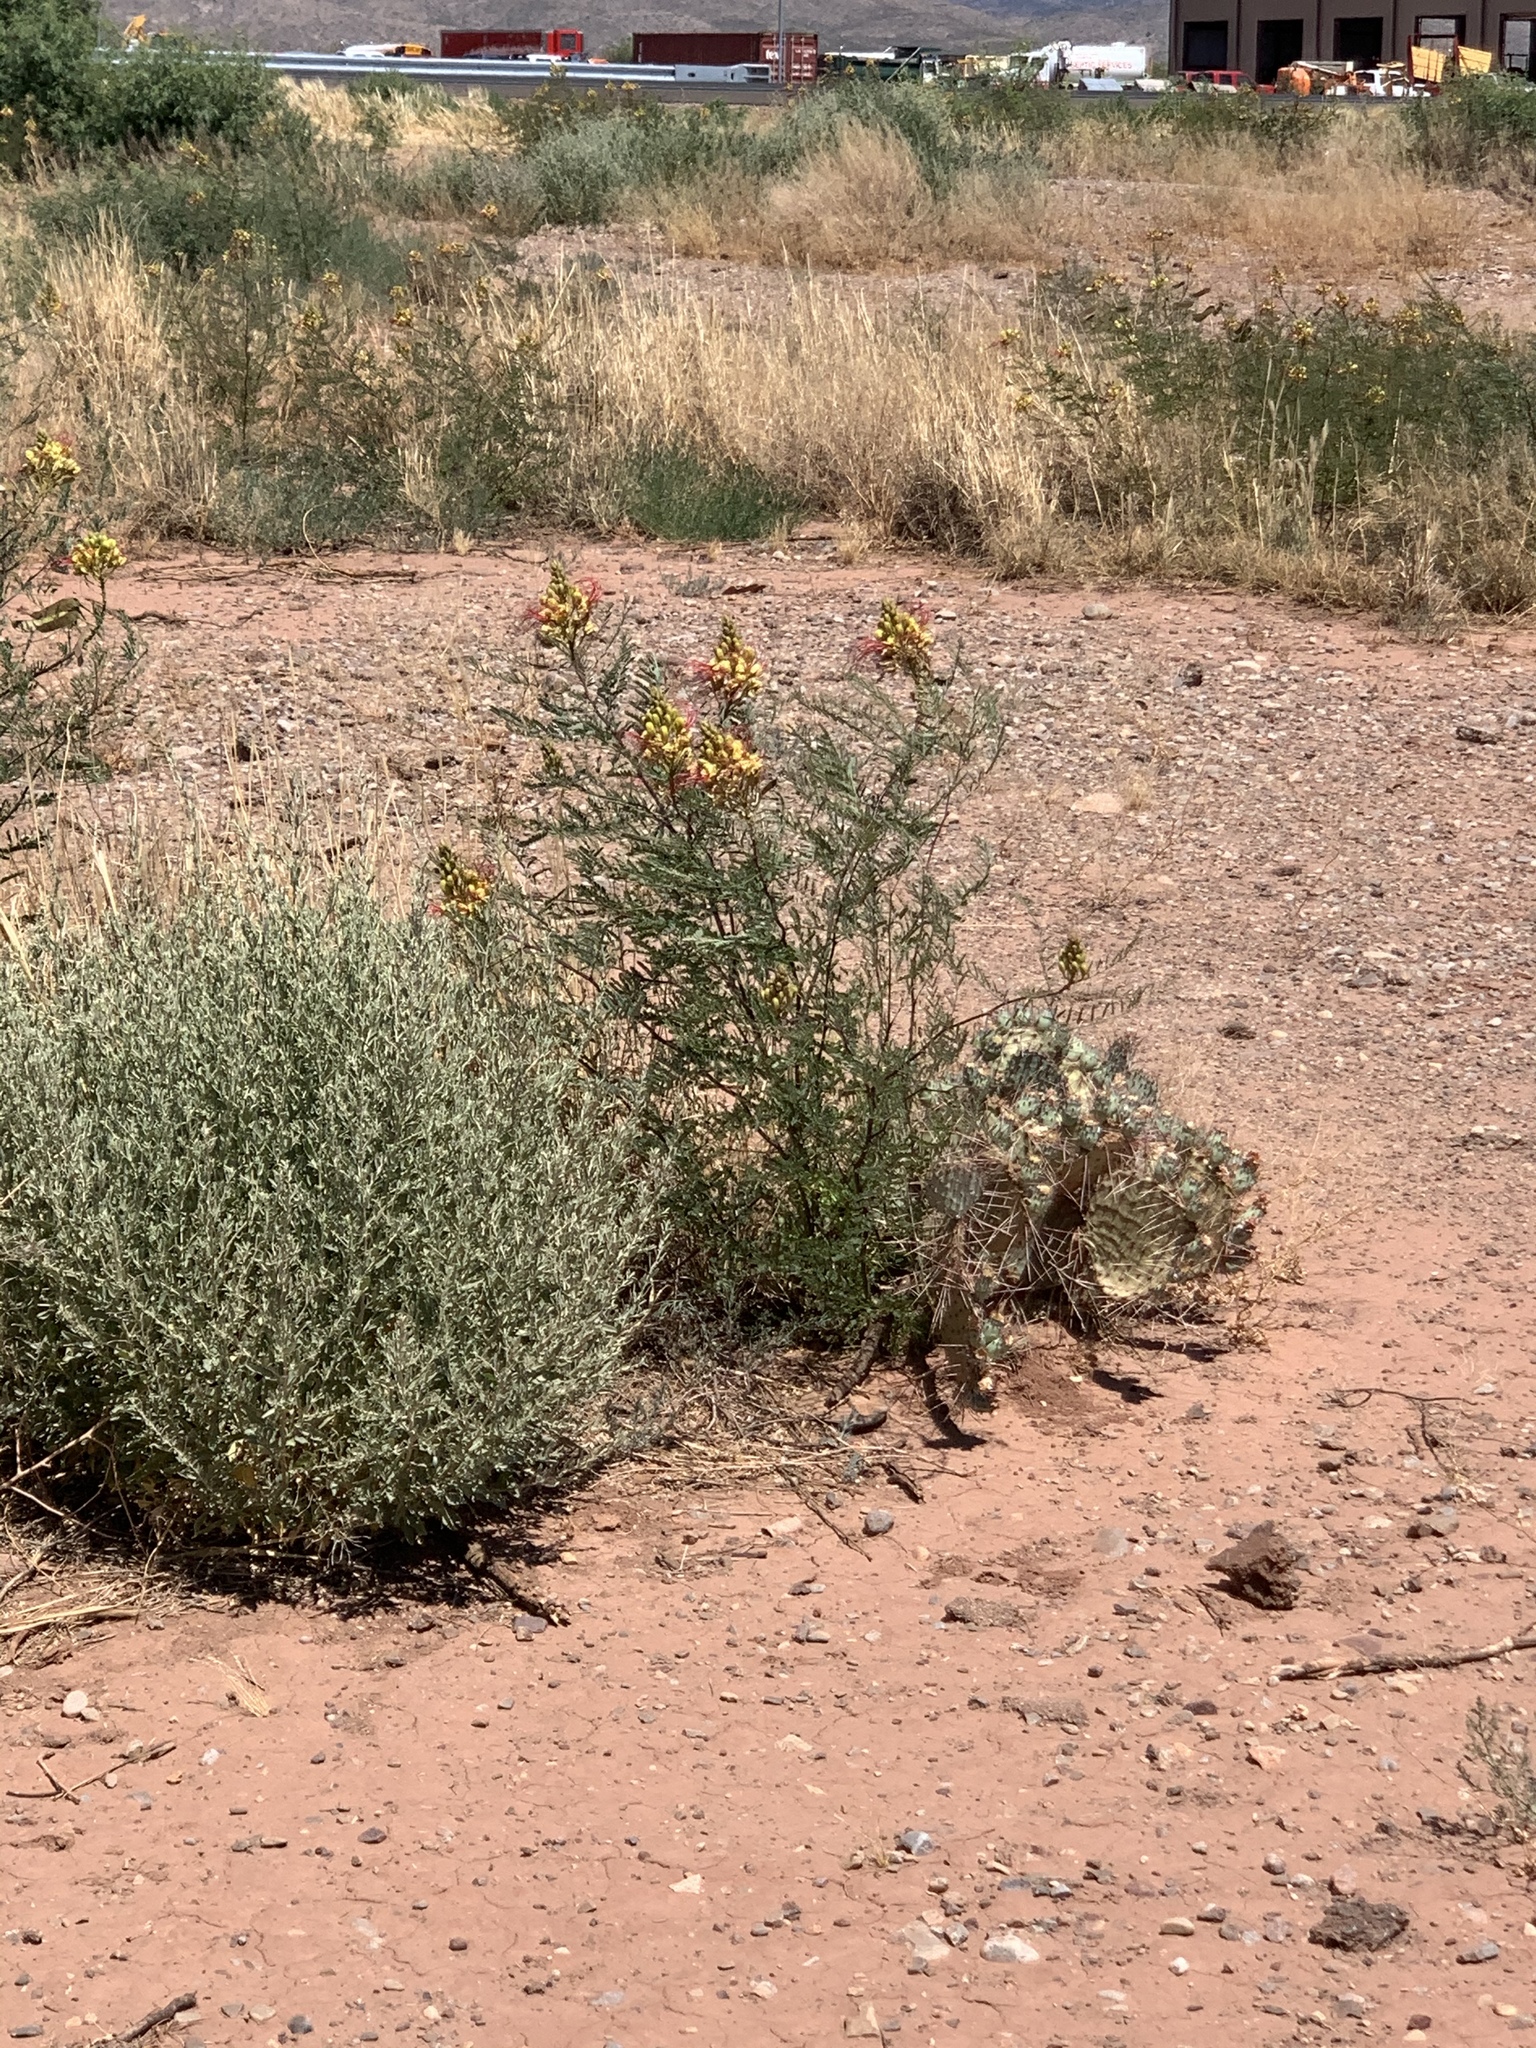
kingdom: Plantae
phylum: Tracheophyta
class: Magnoliopsida
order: Fabales
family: Fabaceae
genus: Erythrostemon
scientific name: Erythrostemon gilliesii
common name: Bird-of-paradise shrub
